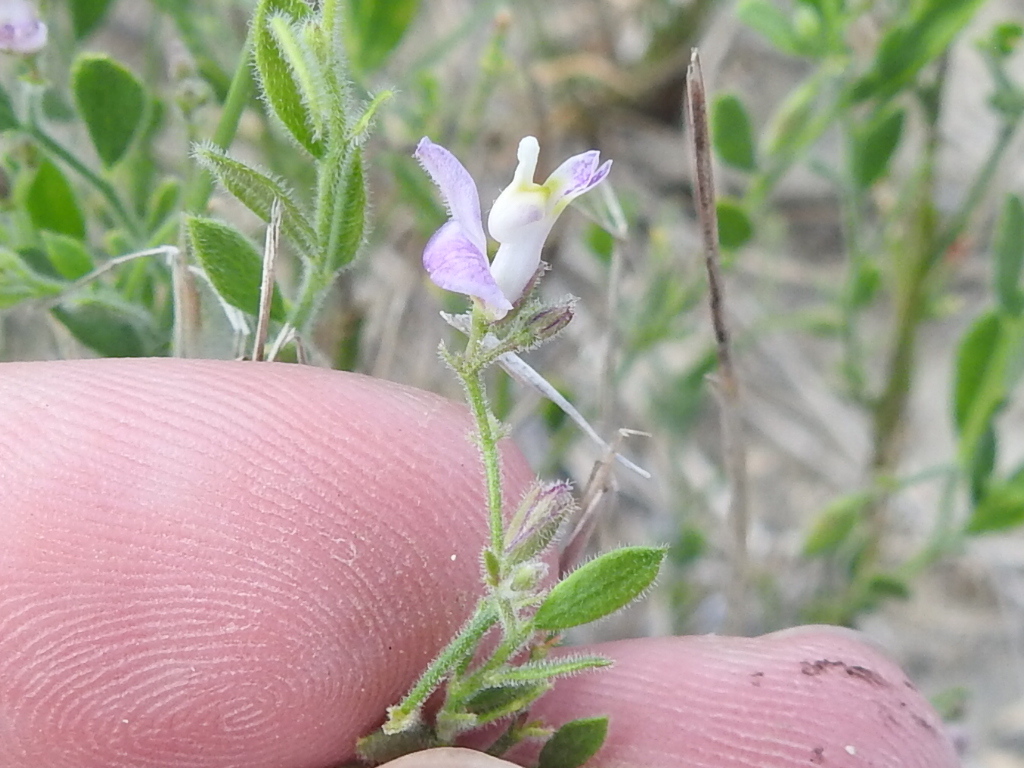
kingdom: Plantae
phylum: Tracheophyta
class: Magnoliopsida
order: Fabales
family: Polygalaceae
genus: Hebecarpa
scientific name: Hebecarpa punctata
